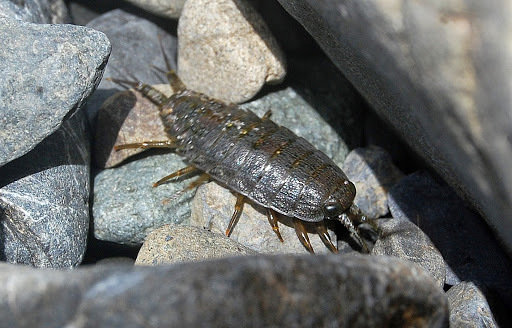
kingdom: Animalia
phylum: Arthropoda
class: Malacostraca
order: Isopoda
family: Ligiidae
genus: Ligia
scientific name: Ligia occidentalis
